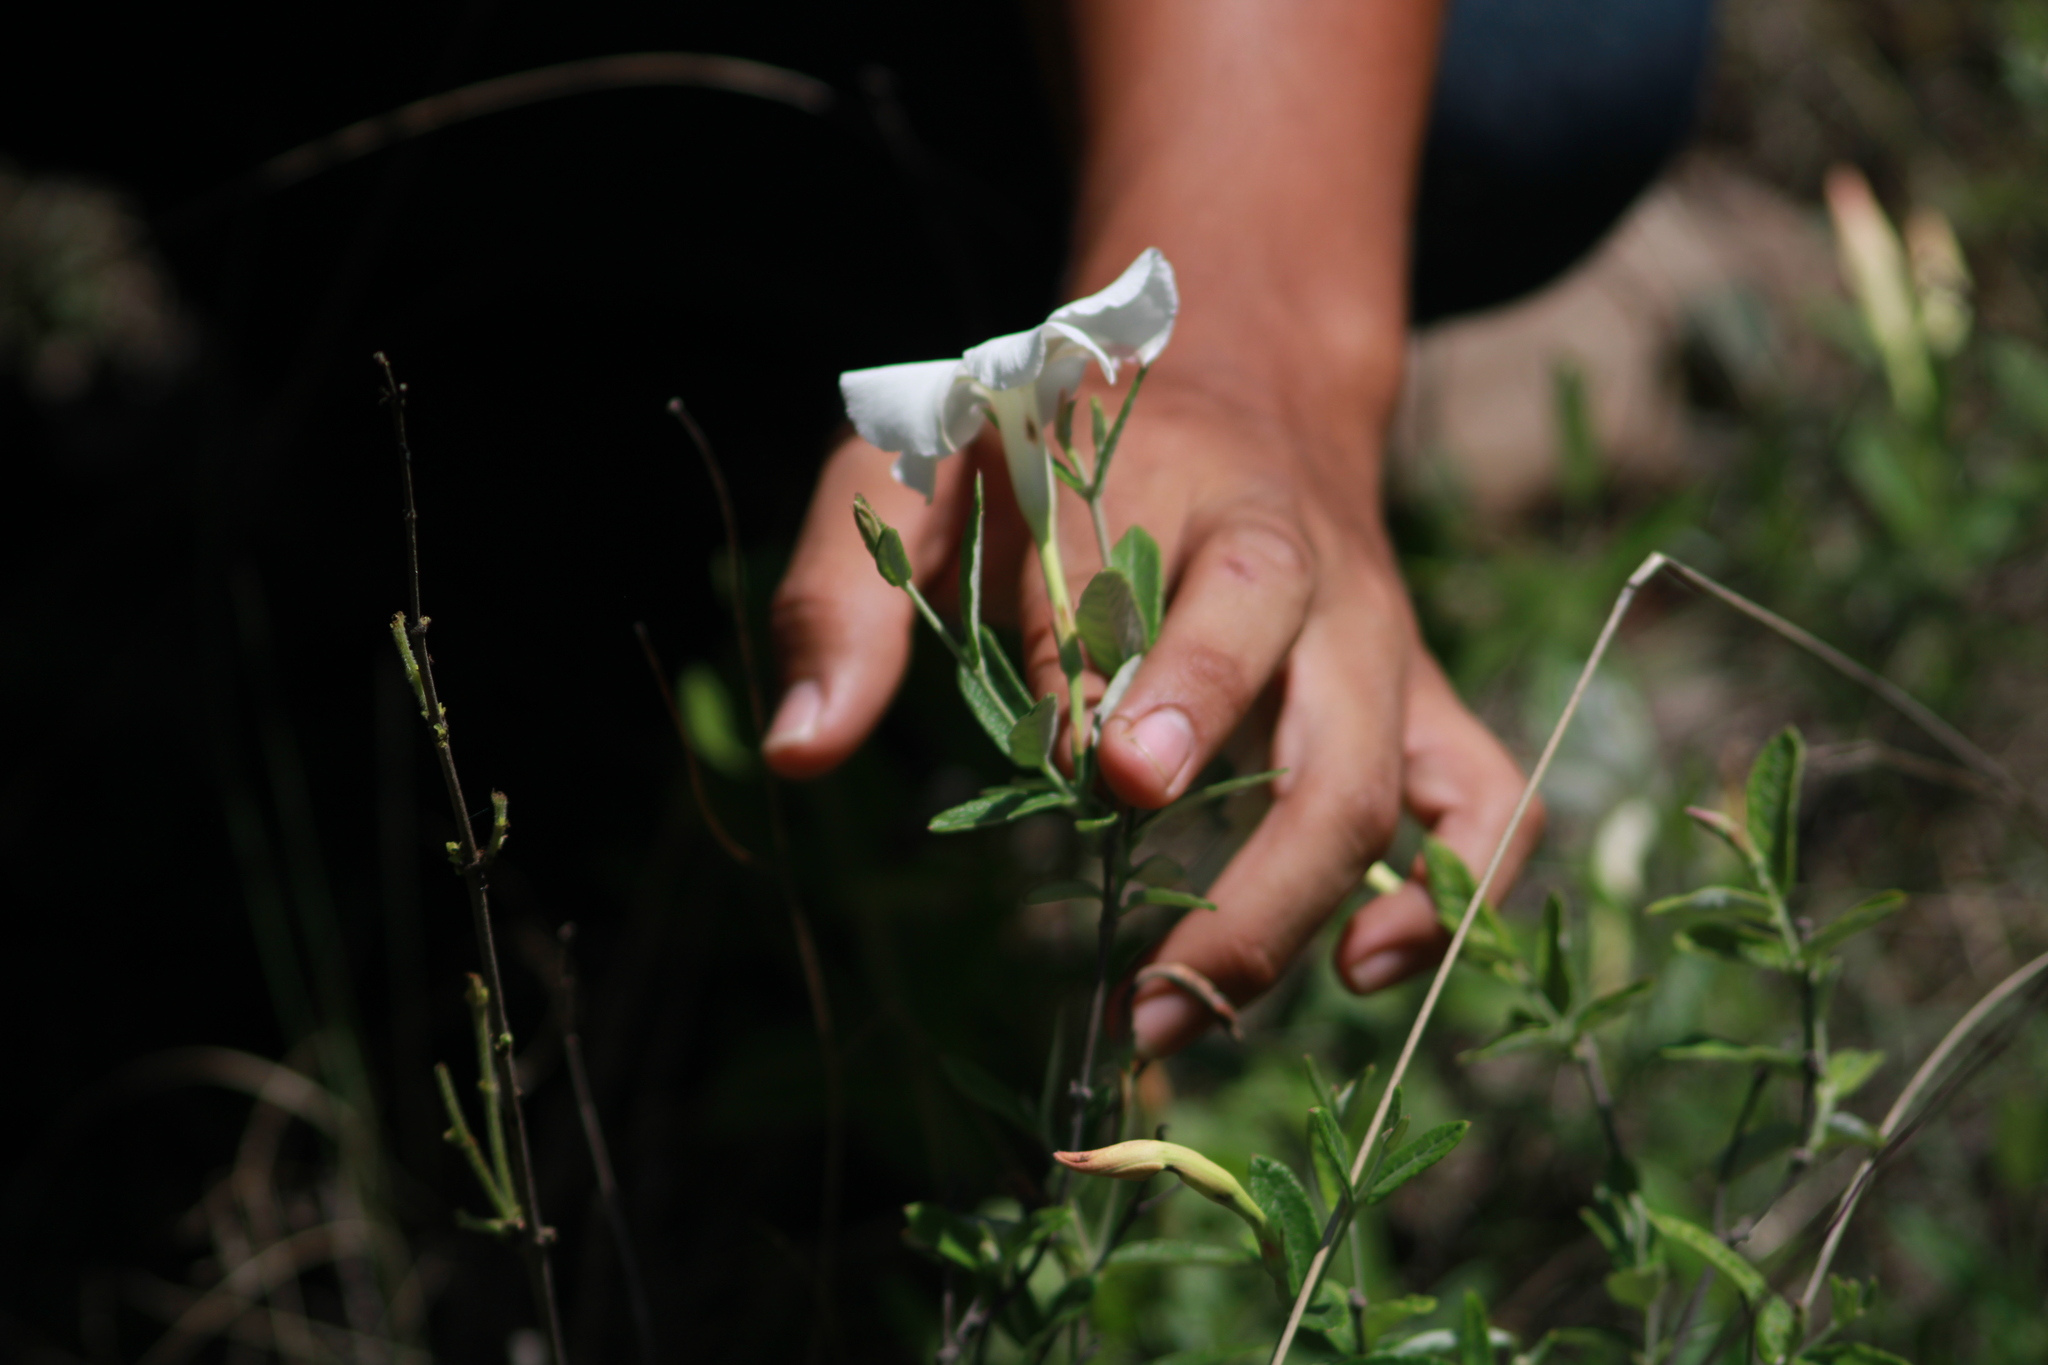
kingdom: Plantae
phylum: Tracheophyta
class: Magnoliopsida
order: Gentianales
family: Apocynaceae
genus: Mandevilla
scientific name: Mandevilla hypoleuca
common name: Davis mountain rocktrumpet
